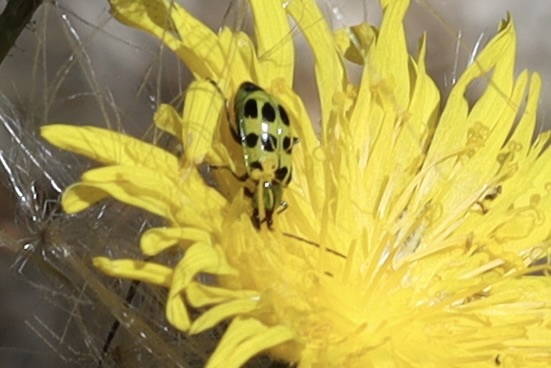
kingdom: Animalia
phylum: Arthropoda
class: Insecta
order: Coleoptera
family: Chrysomelidae
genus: Diabrotica
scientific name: Diabrotica undecimpunctata
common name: Spotted cucumber beetle
